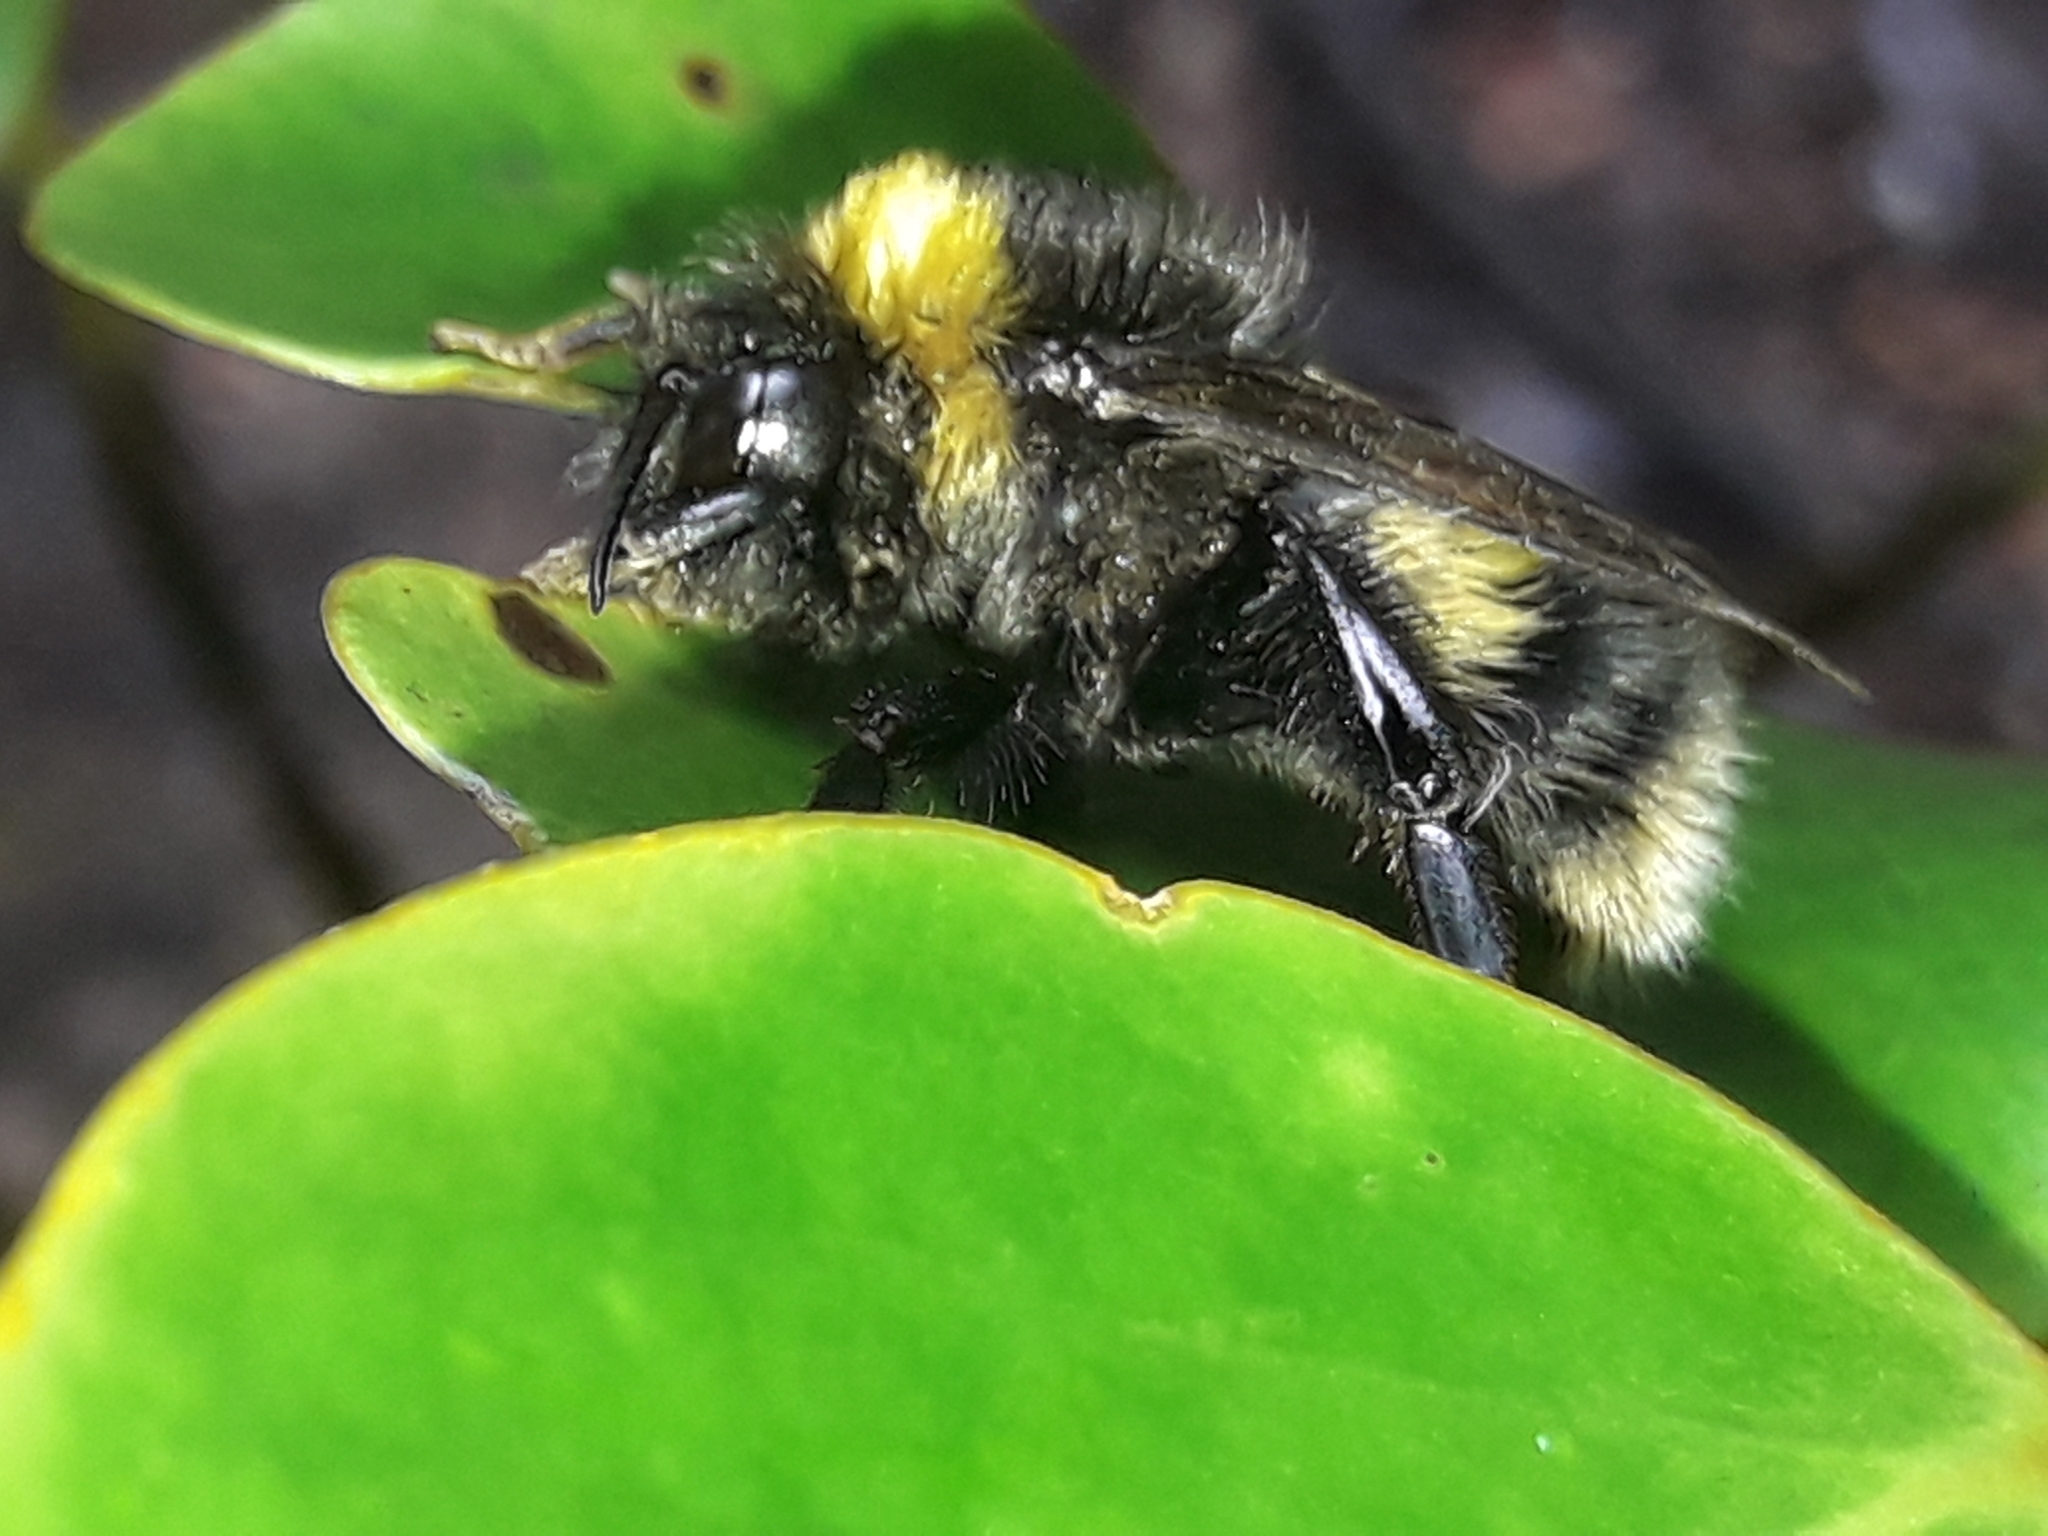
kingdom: Animalia
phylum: Arthropoda
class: Insecta
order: Hymenoptera
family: Apidae
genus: Bombus
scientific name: Bombus terrestris
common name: Buff-tailed bumblebee
